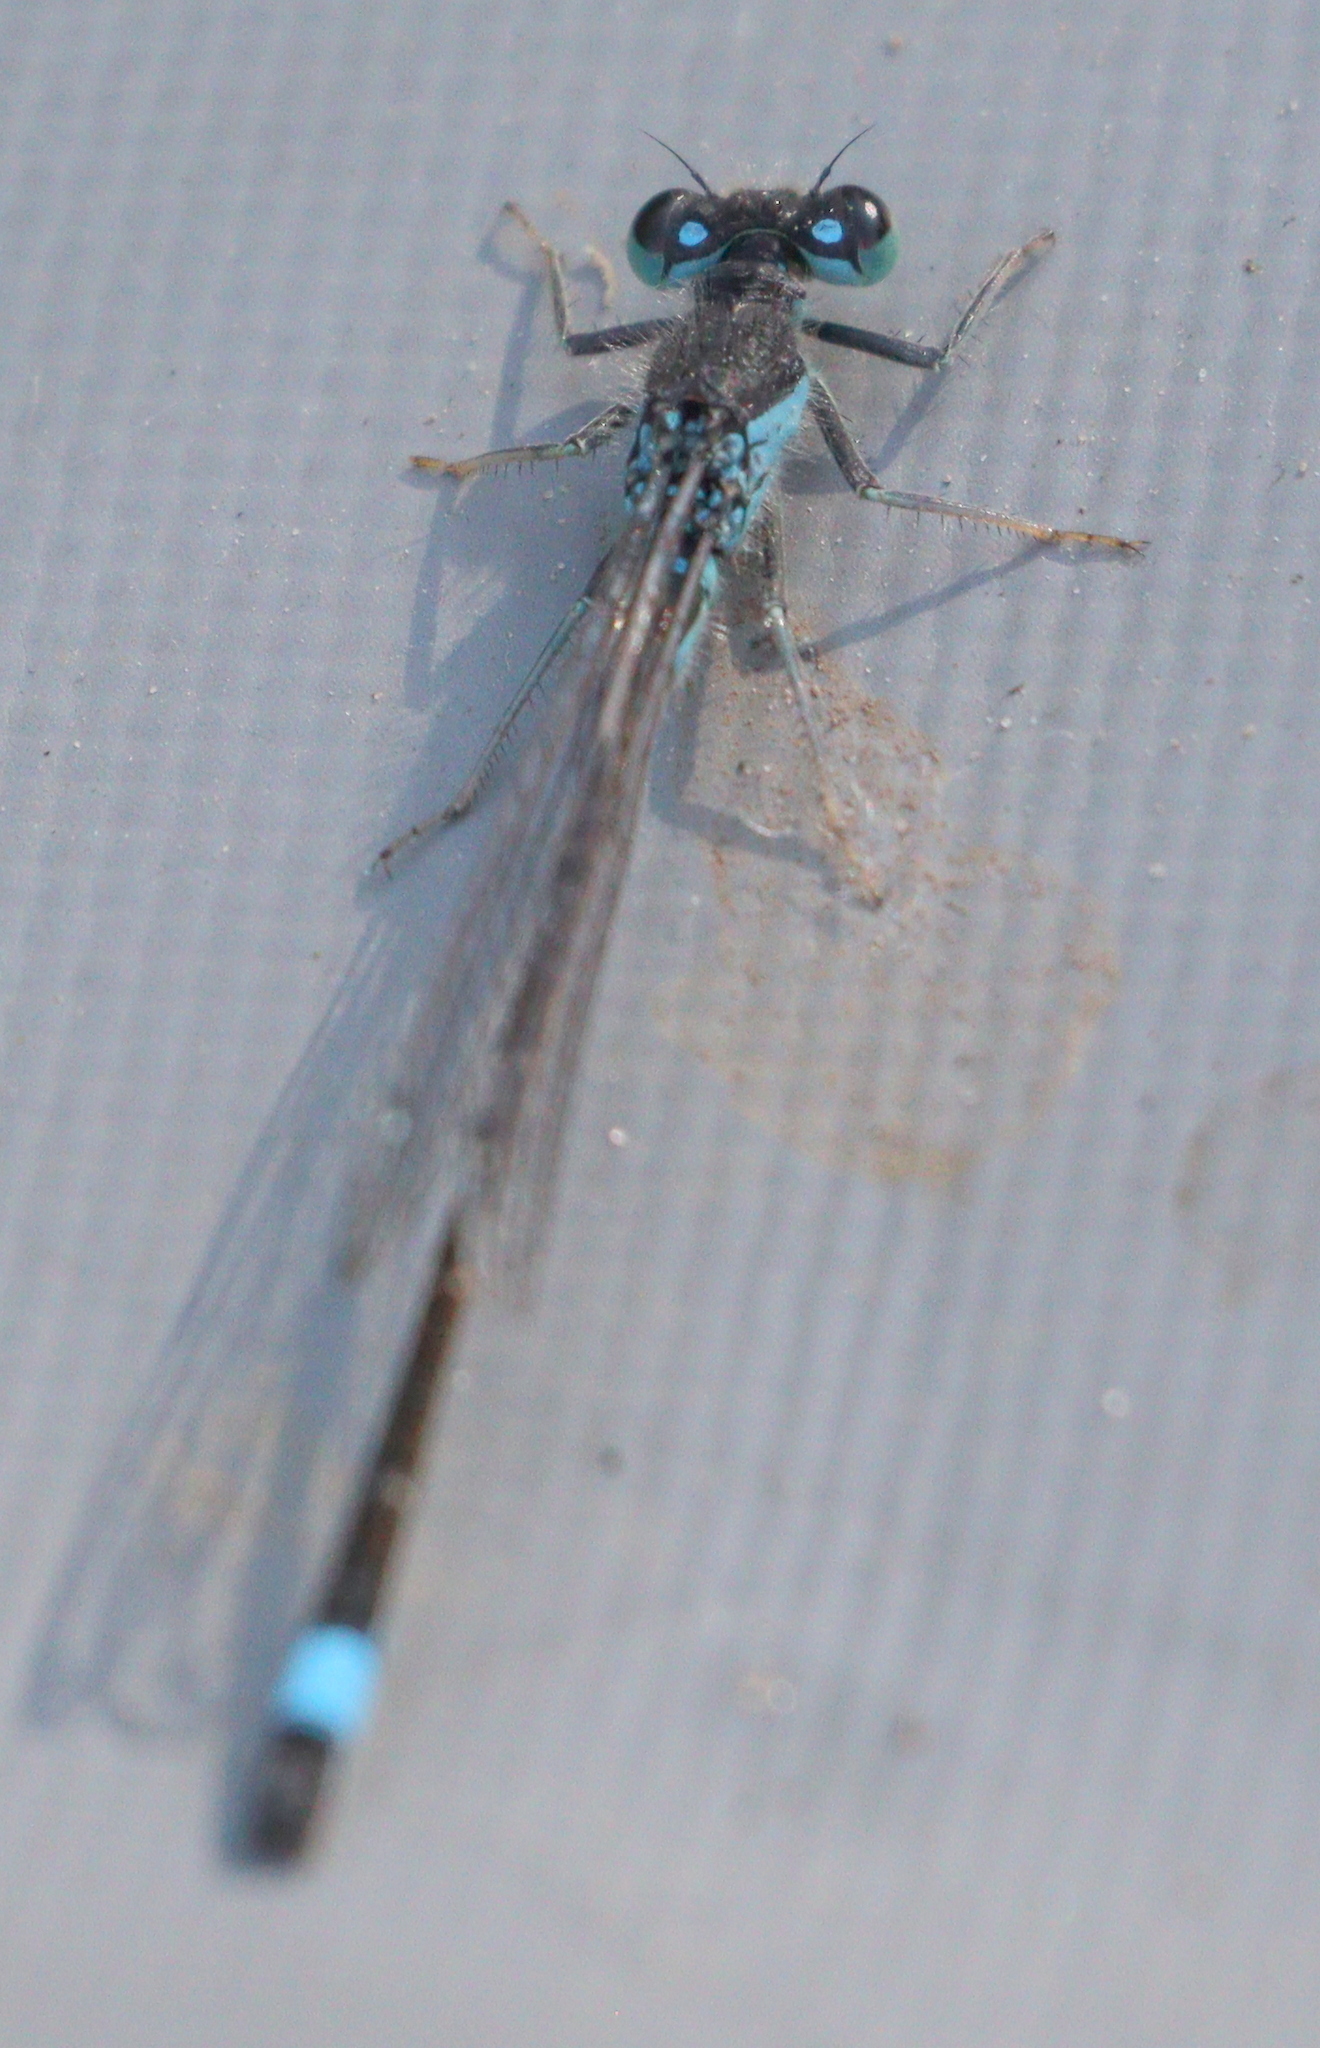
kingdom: Animalia
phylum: Arthropoda
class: Insecta
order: Odonata
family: Coenagrionidae
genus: Ischnura
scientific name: Ischnura elegans
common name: Blue-tailed damselfly
